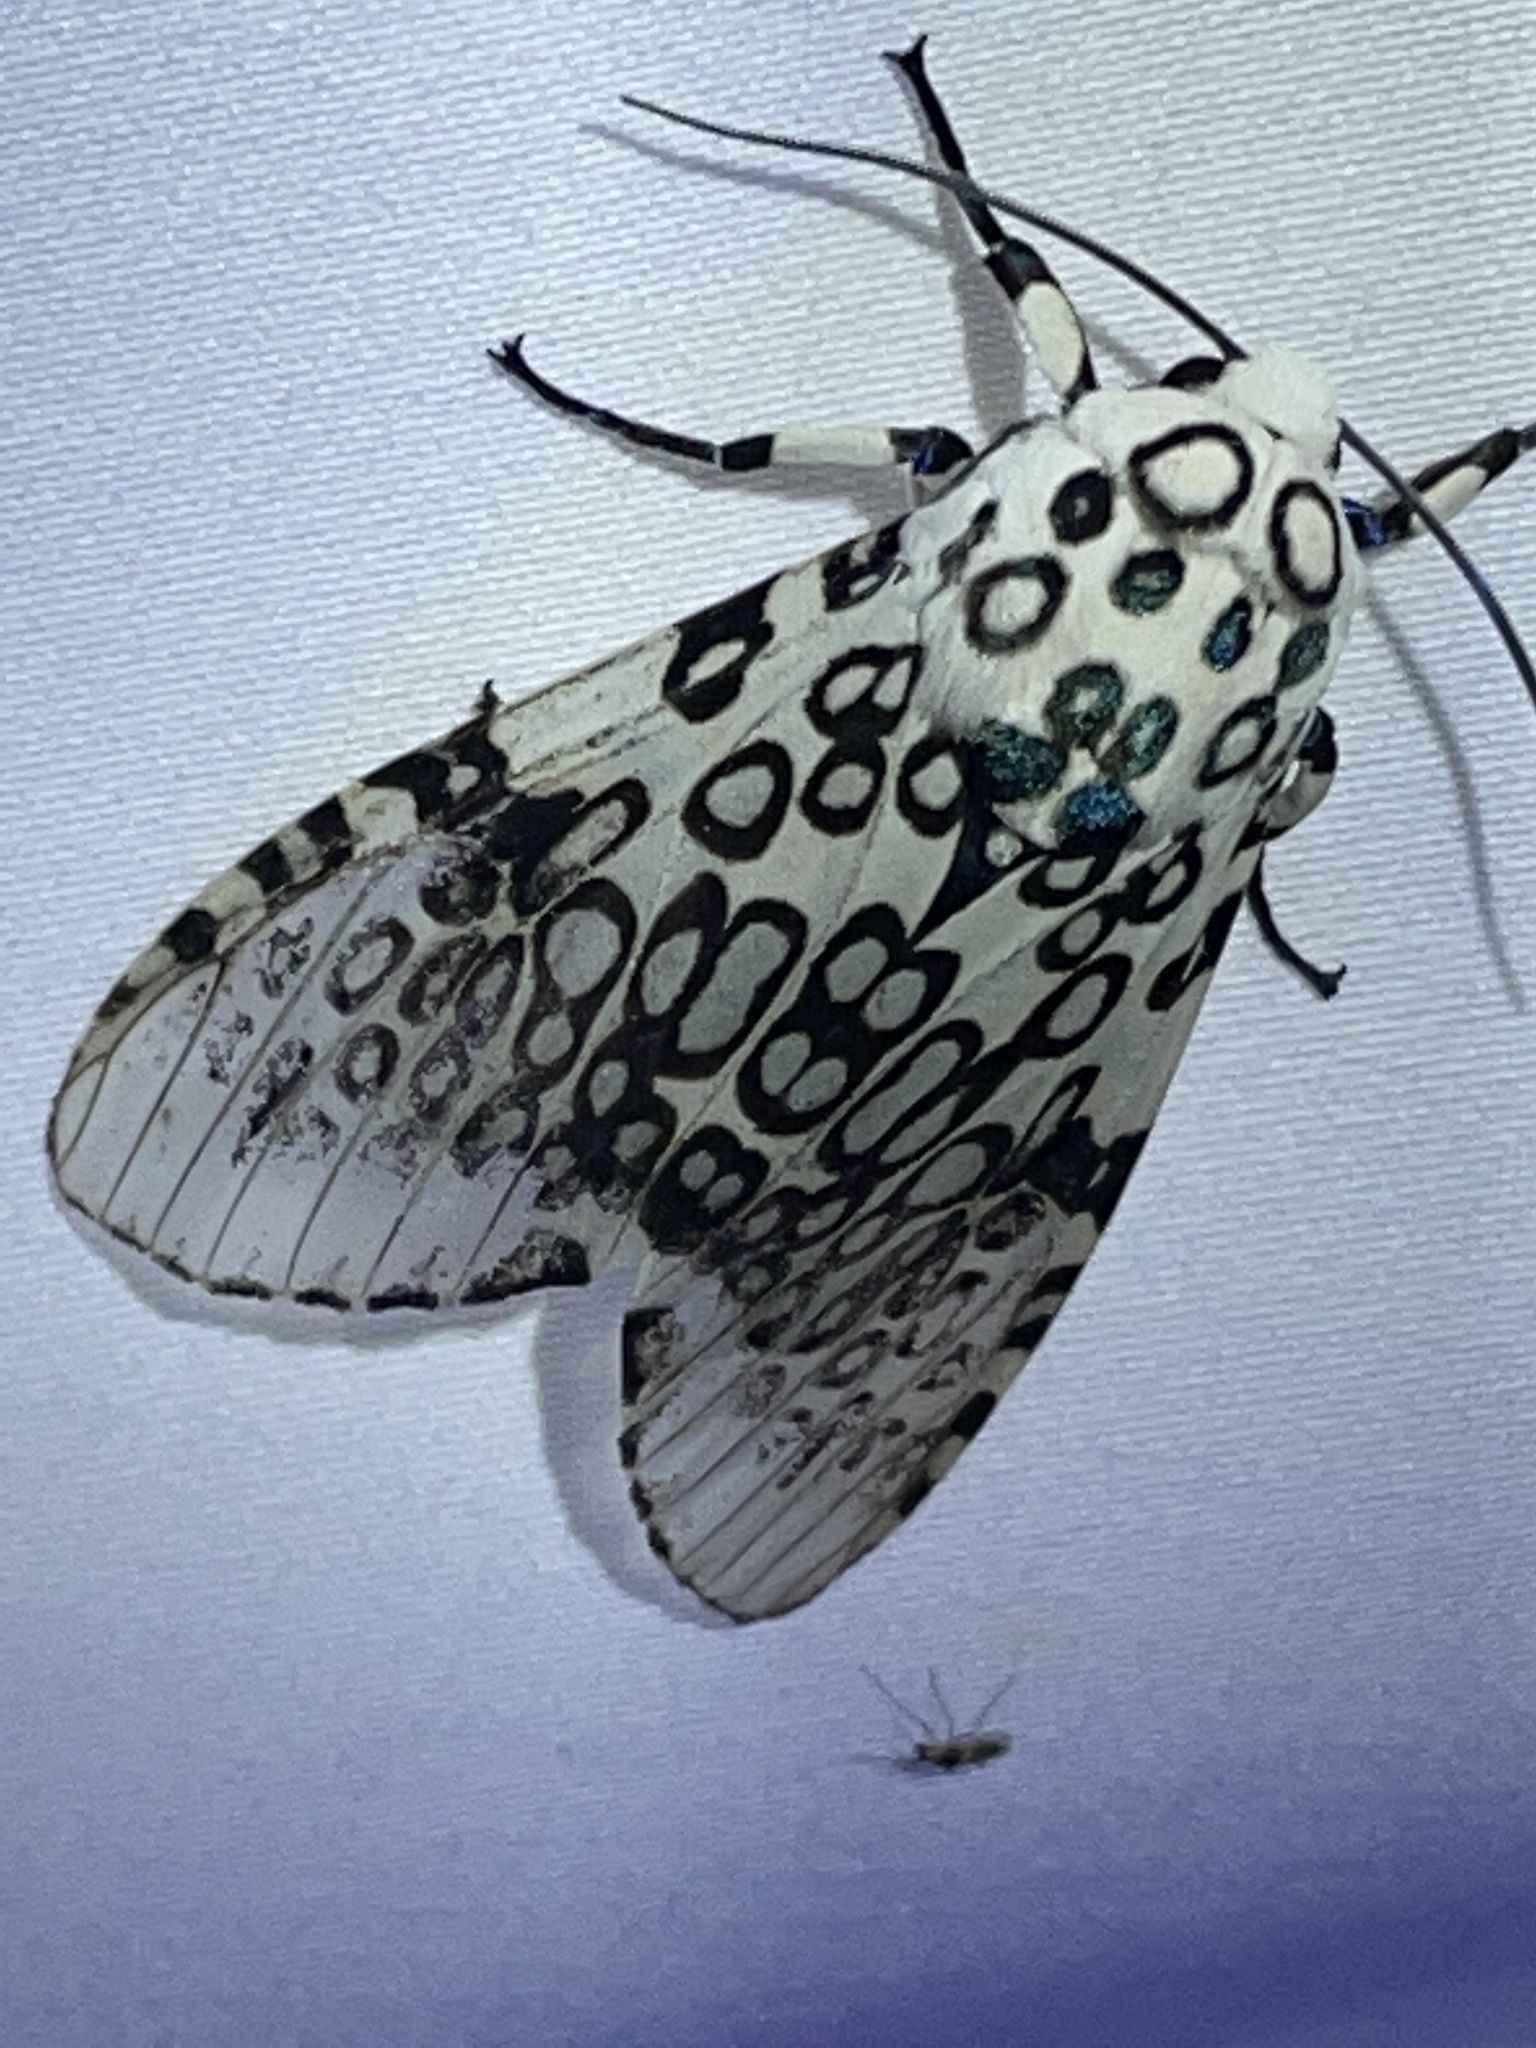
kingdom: Animalia
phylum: Arthropoda
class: Insecta
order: Lepidoptera
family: Erebidae
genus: Hypercompe
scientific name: Hypercompe scribonia
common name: Giant leopard moth
